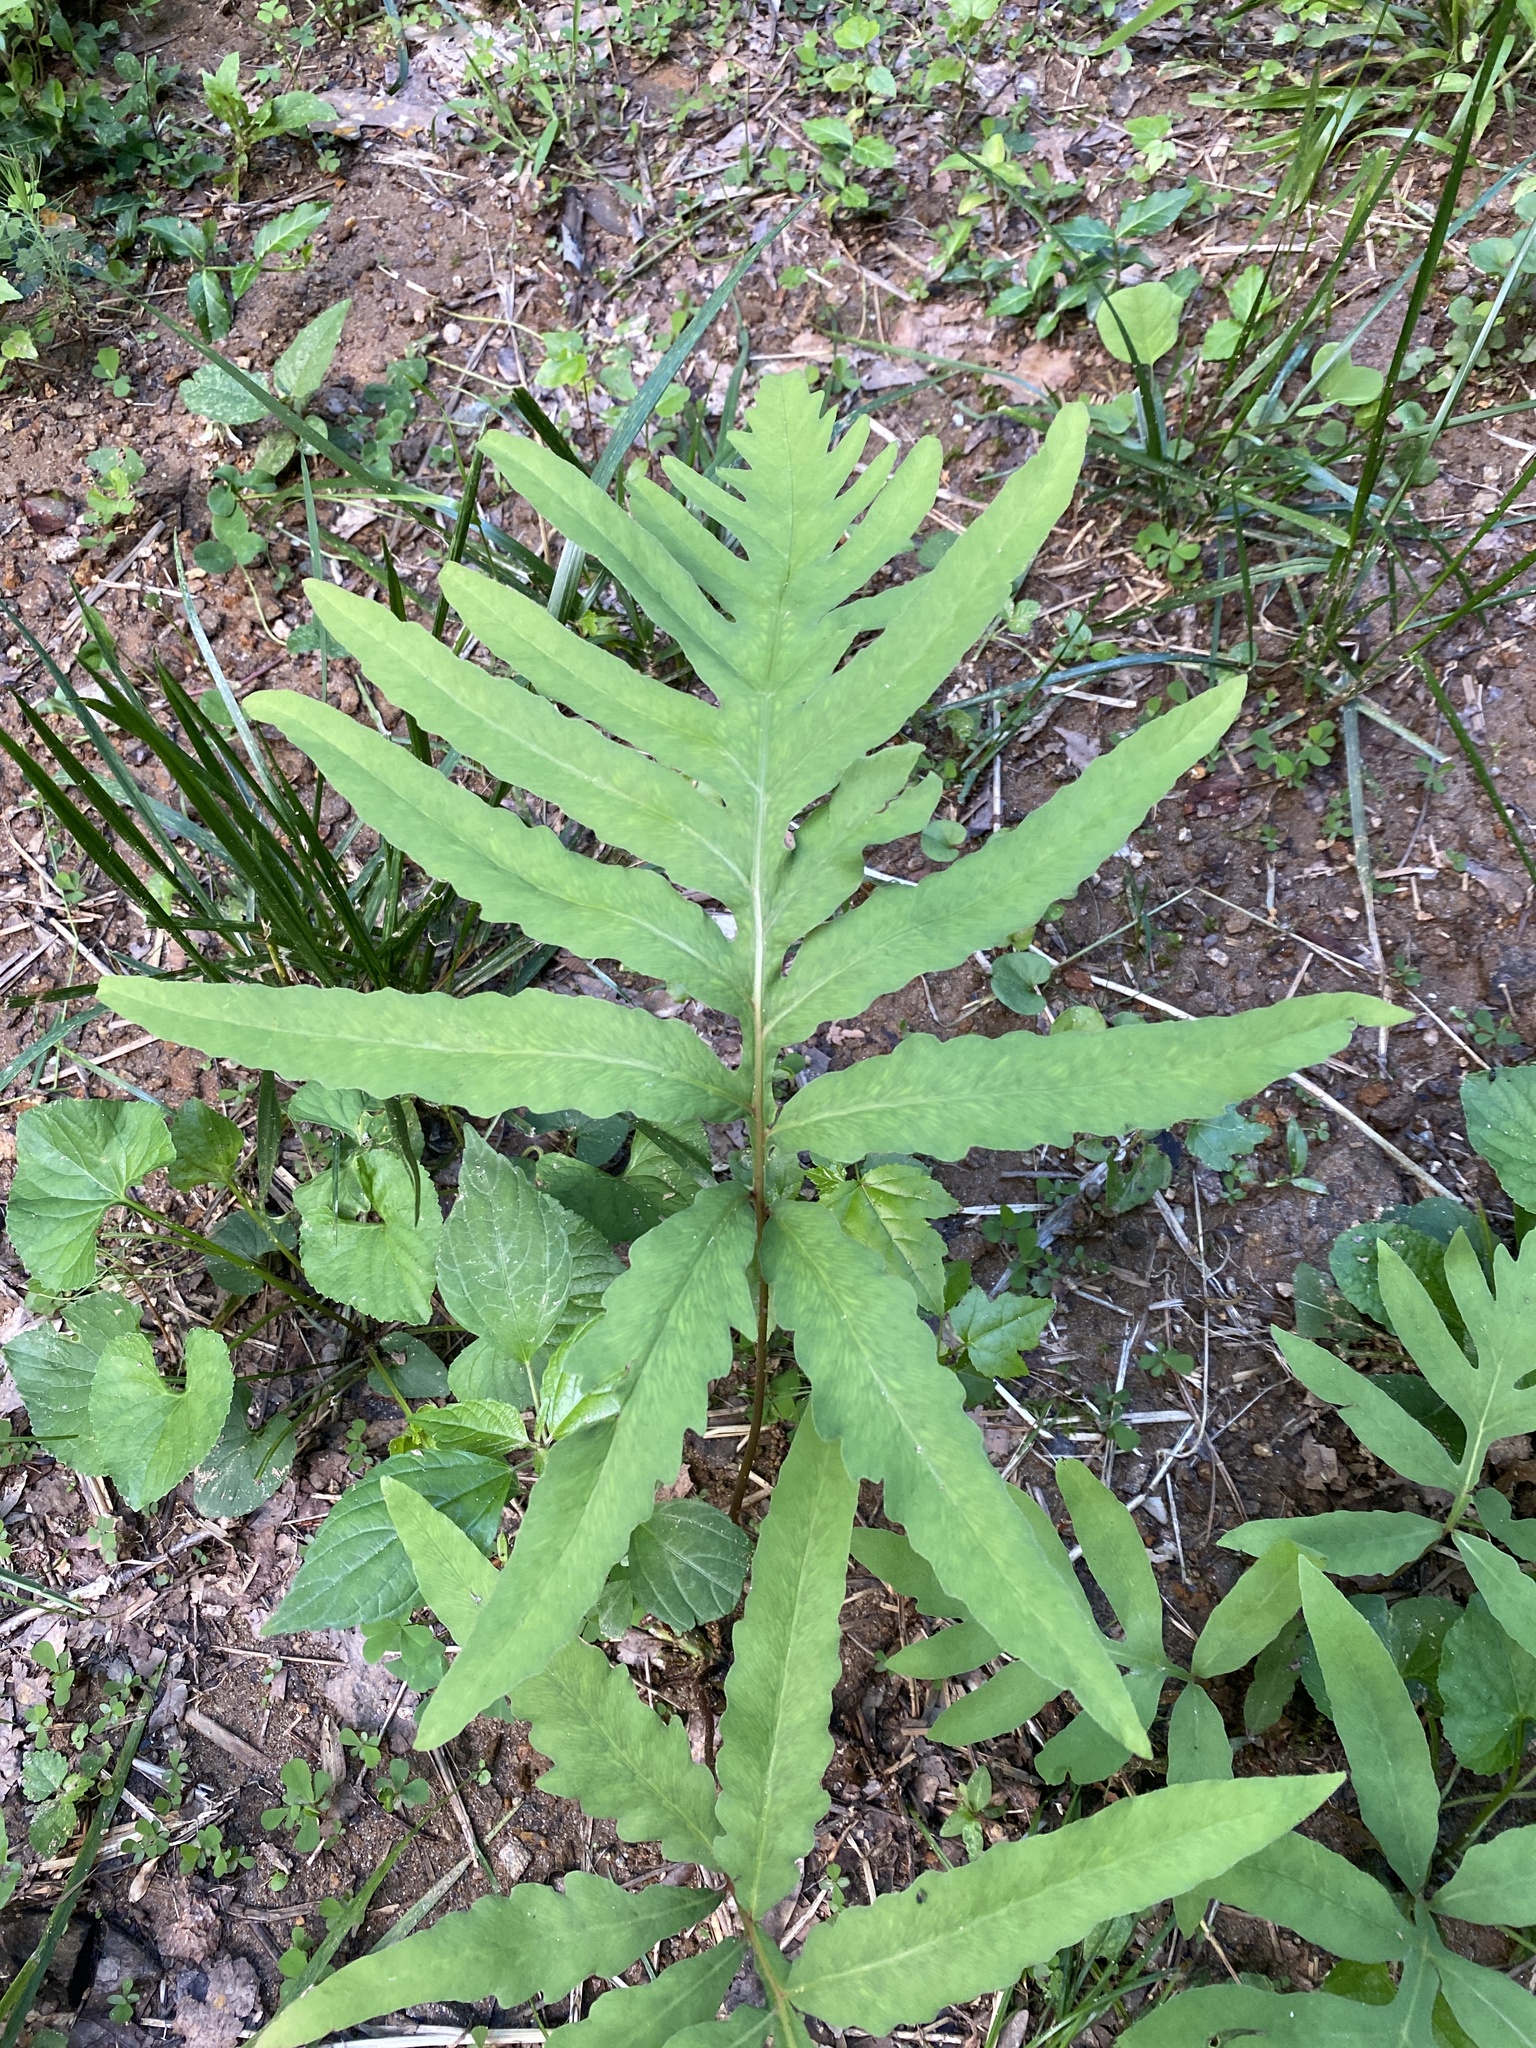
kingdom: Plantae
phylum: Tracheophyta
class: Polypodiopsida
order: Polypodiales
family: Onocleaceae
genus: Onoclea
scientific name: Onoclea sensibilis
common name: Sensitive fern
